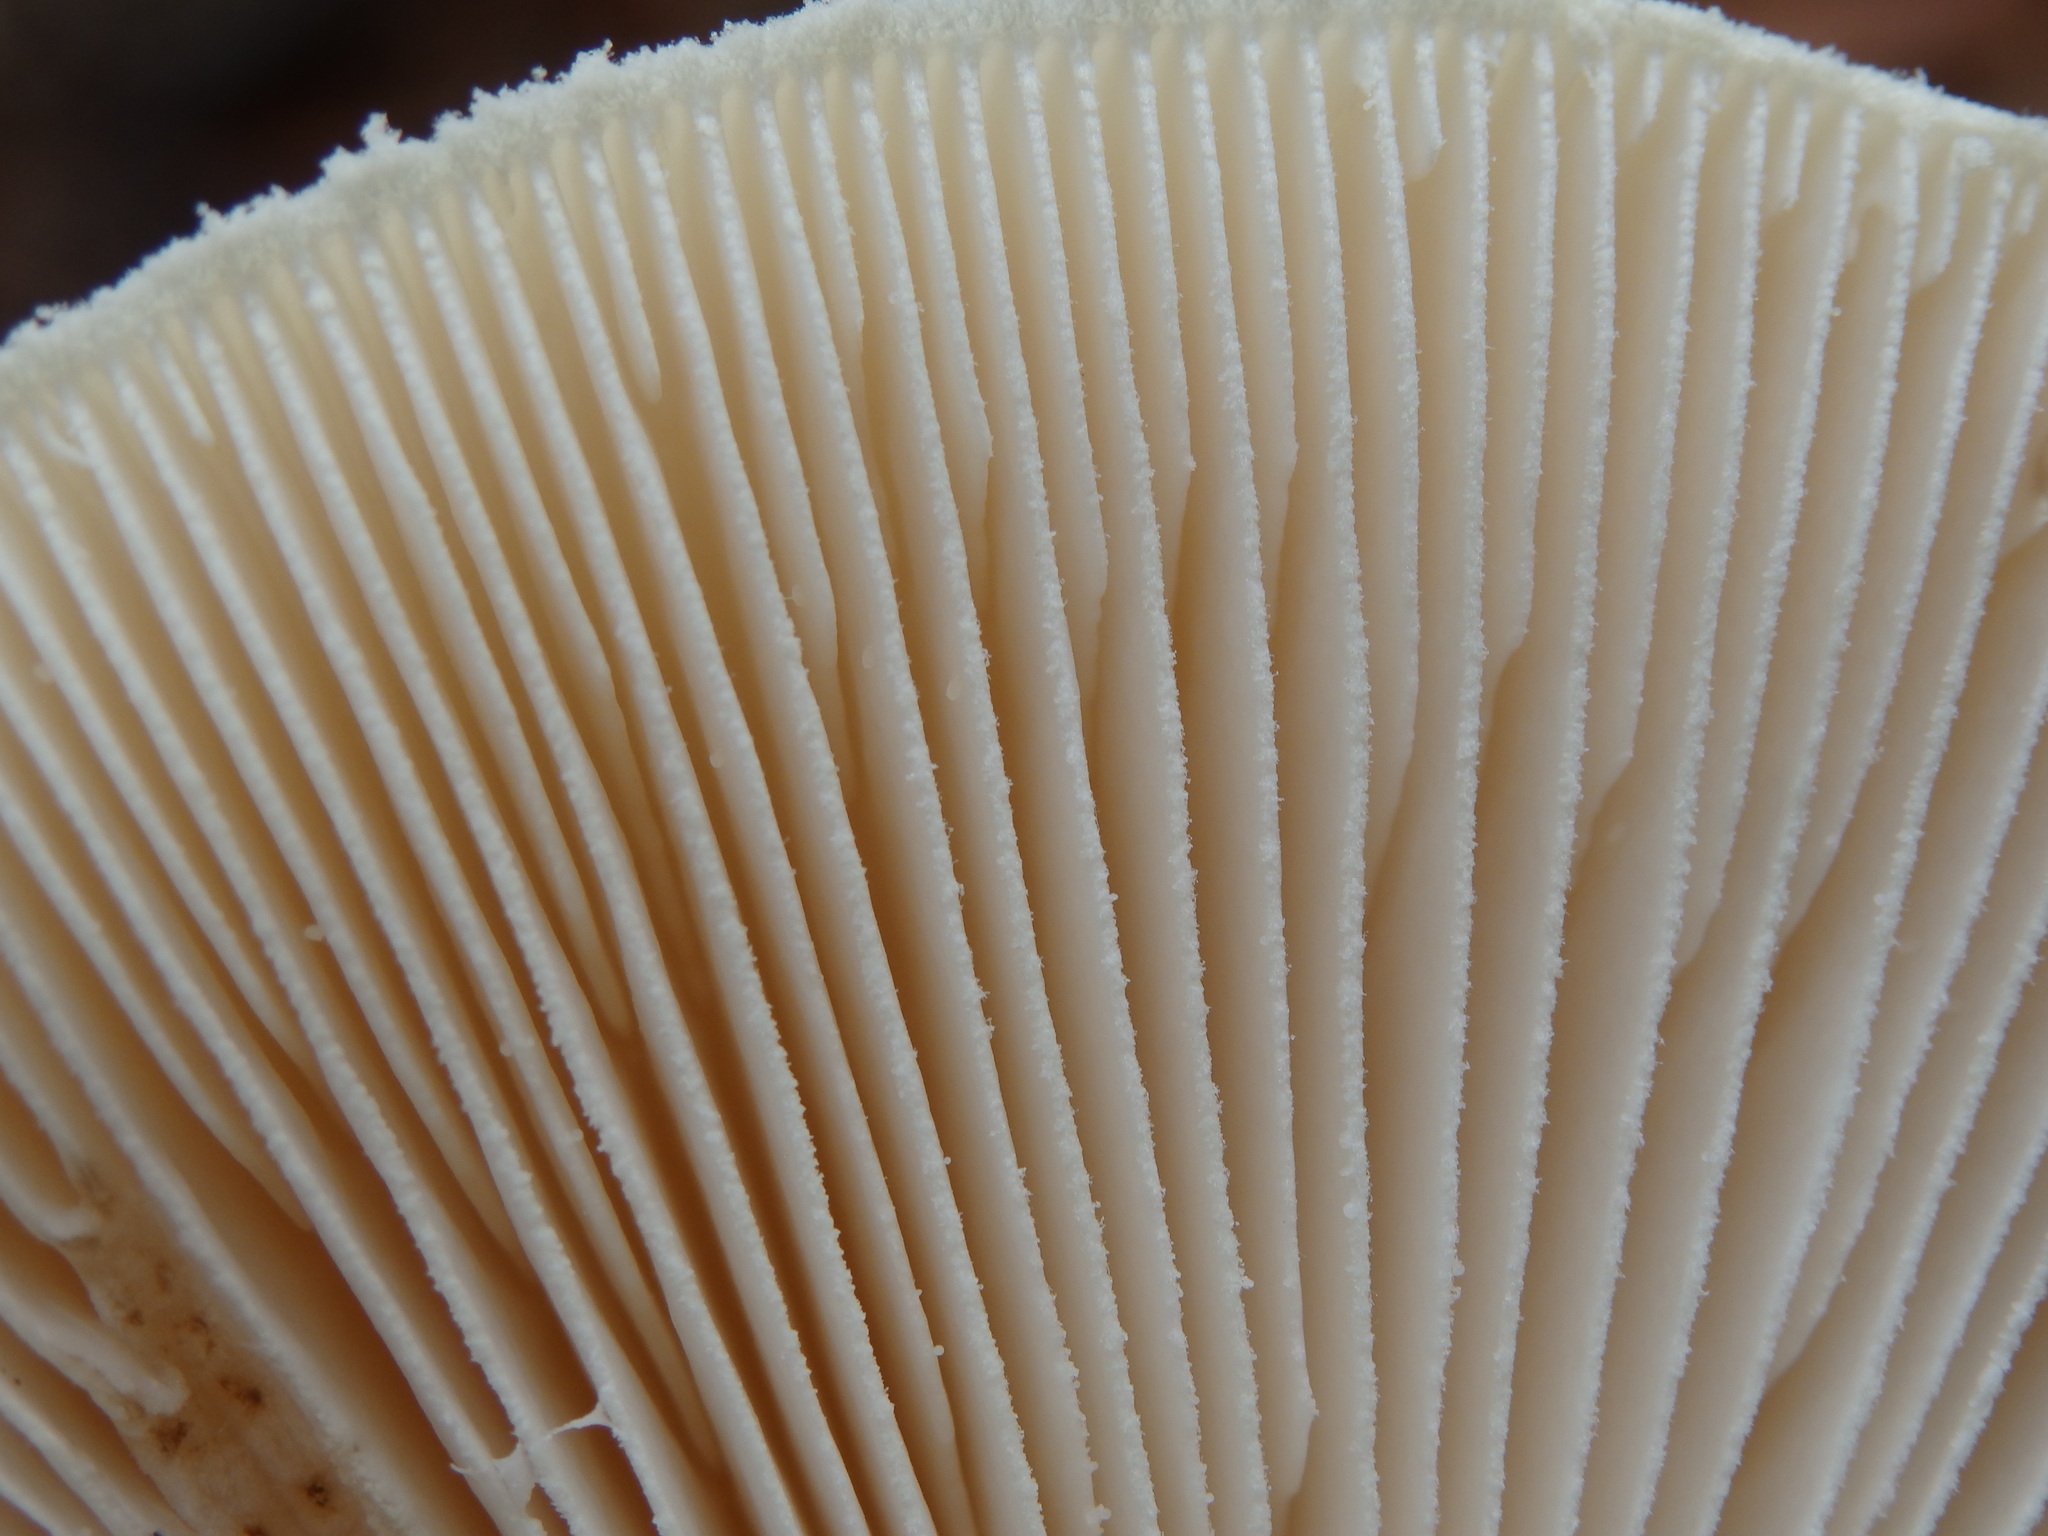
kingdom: Fungi
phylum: Basidiomycota
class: Agaricomycetes
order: Agaricales
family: Amanitaceae
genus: Amanita
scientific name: Amanita citrina
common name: False death-cap
